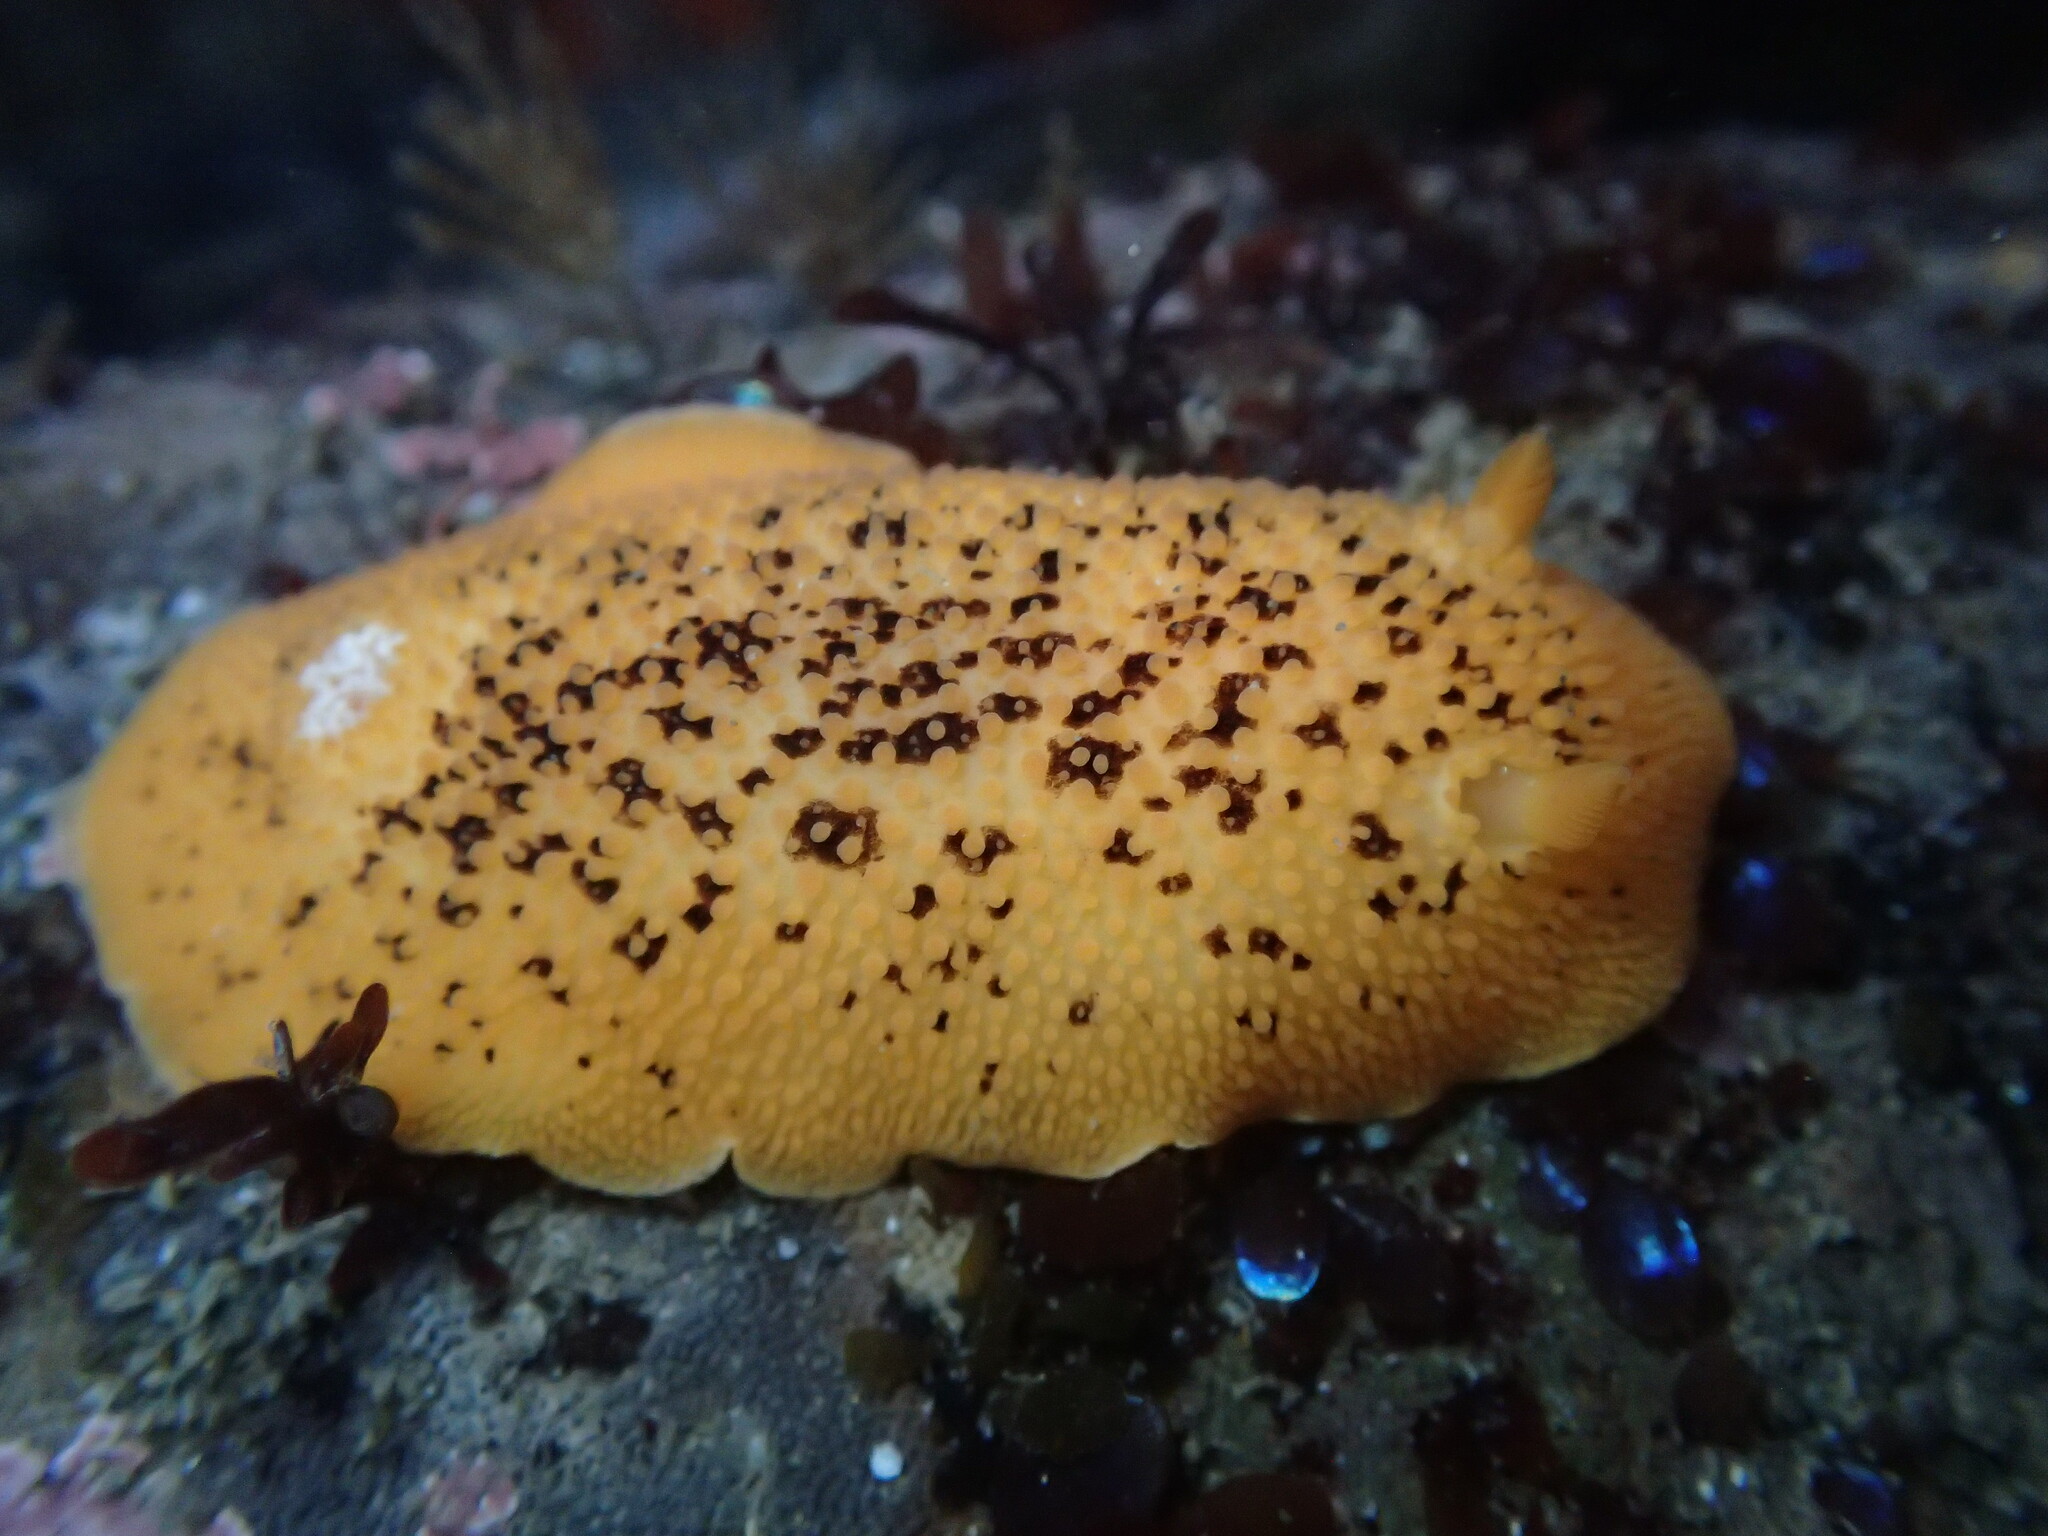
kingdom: Animalia
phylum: Mollusca
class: Gastropoda
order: Nudibranchia
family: Discodorididae
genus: Peltodoris
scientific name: Peltodoris nobilis
